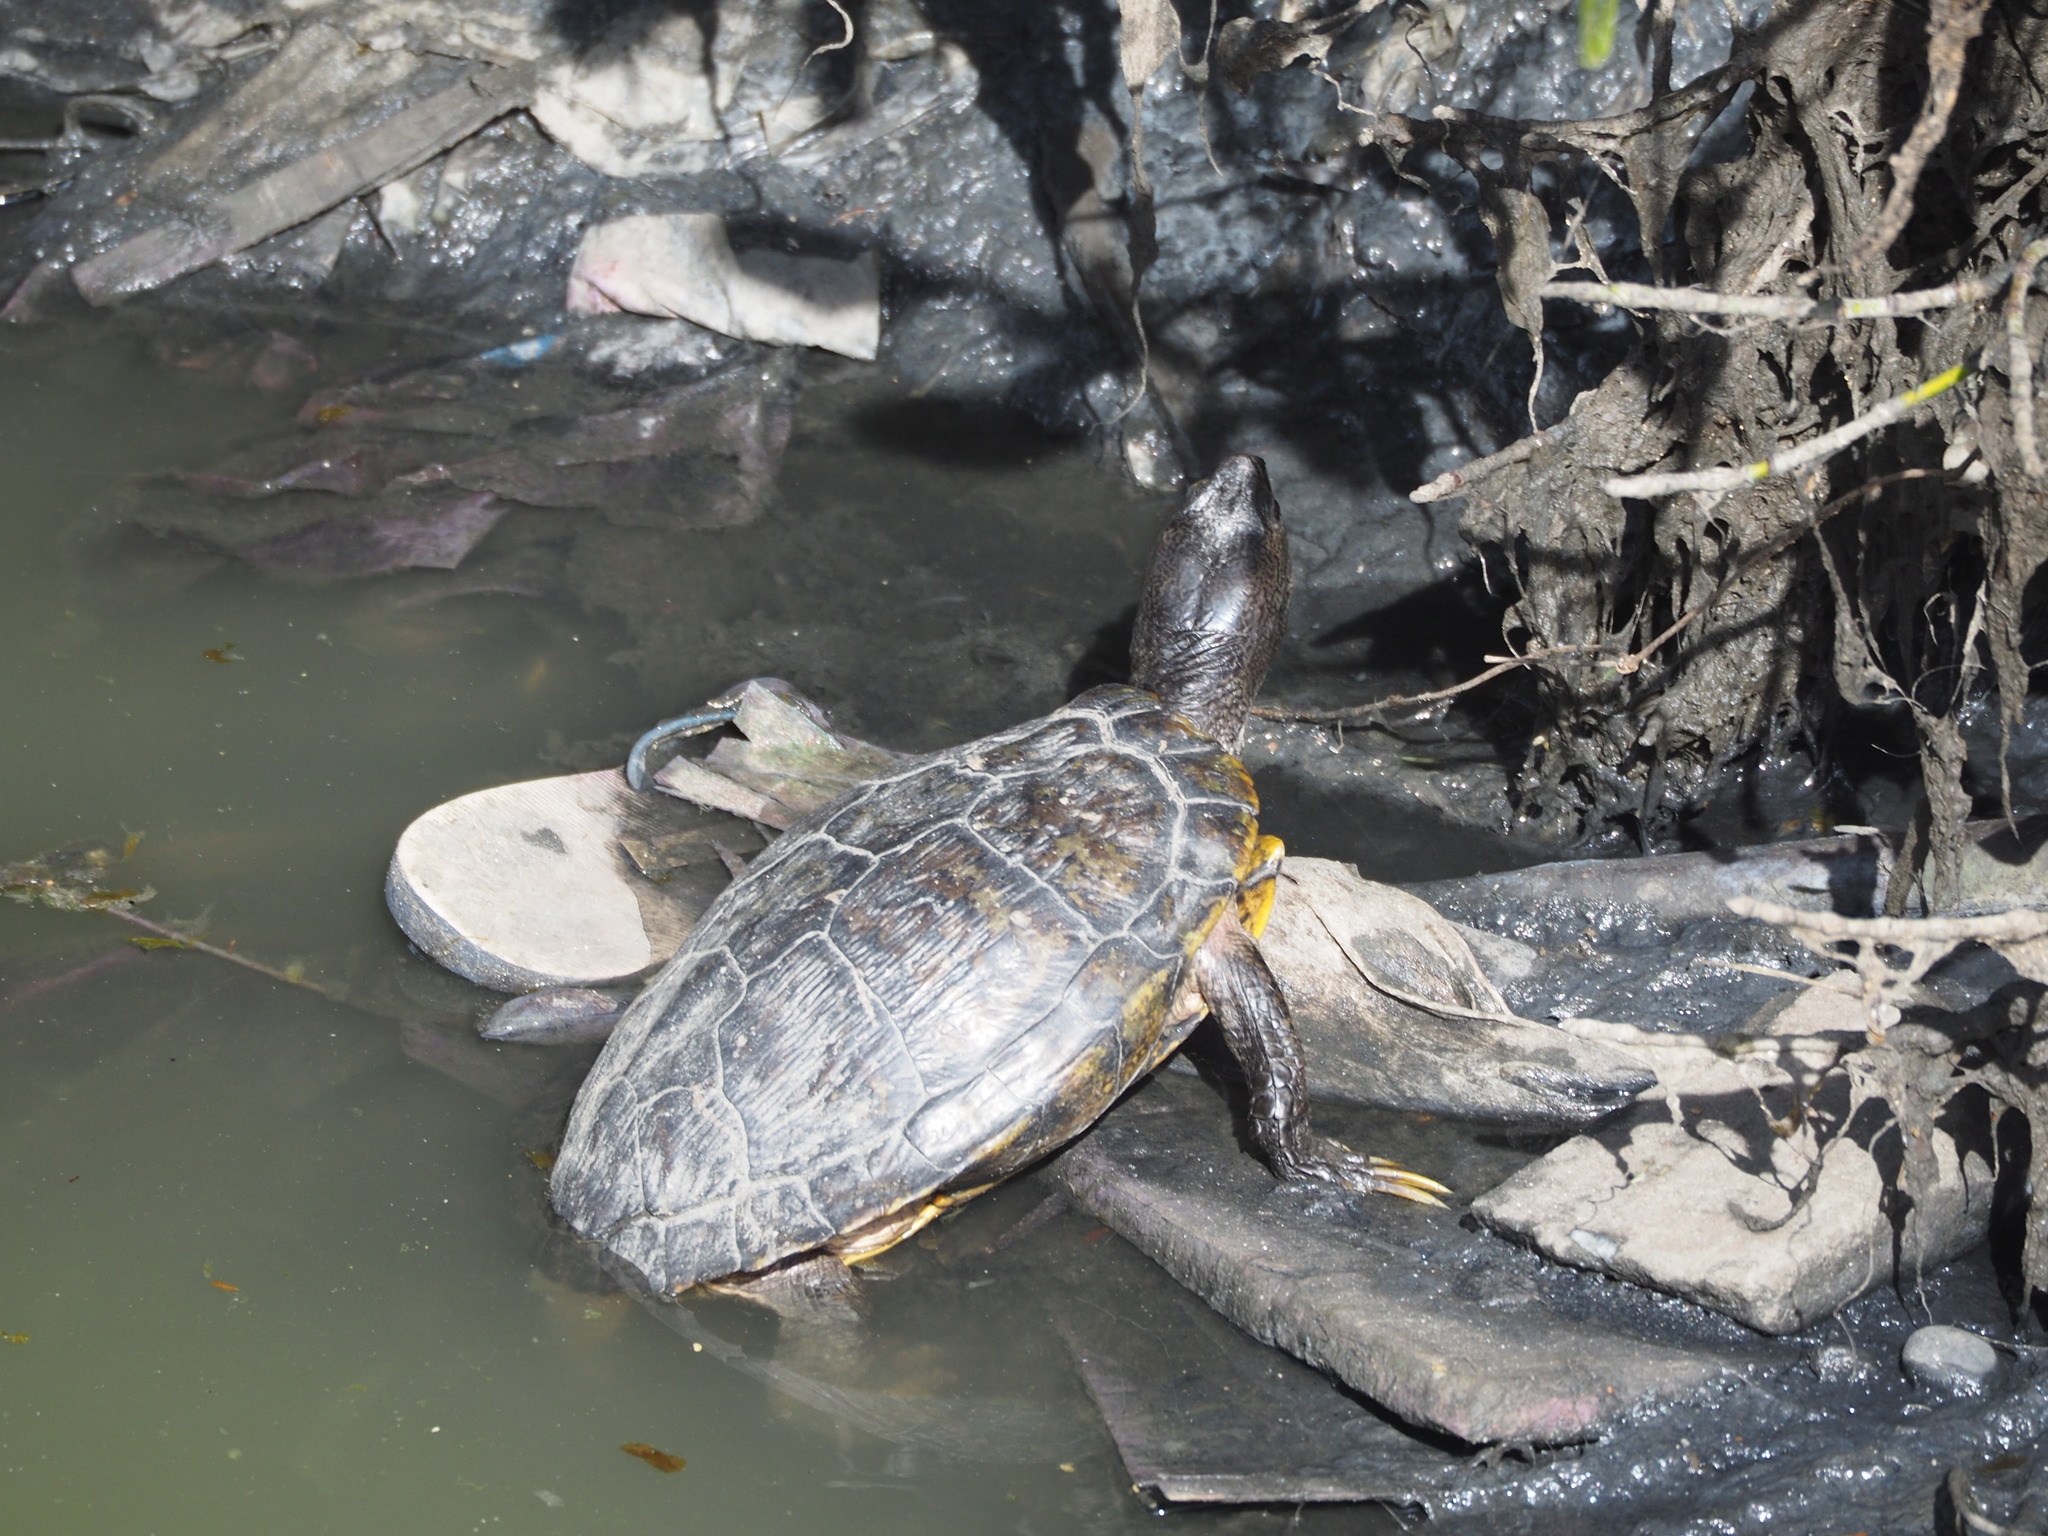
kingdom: Animalia
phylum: Chordata
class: Testudines
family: Emydidae
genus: Trachemys
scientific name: Trachemys scripta
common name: Slider
